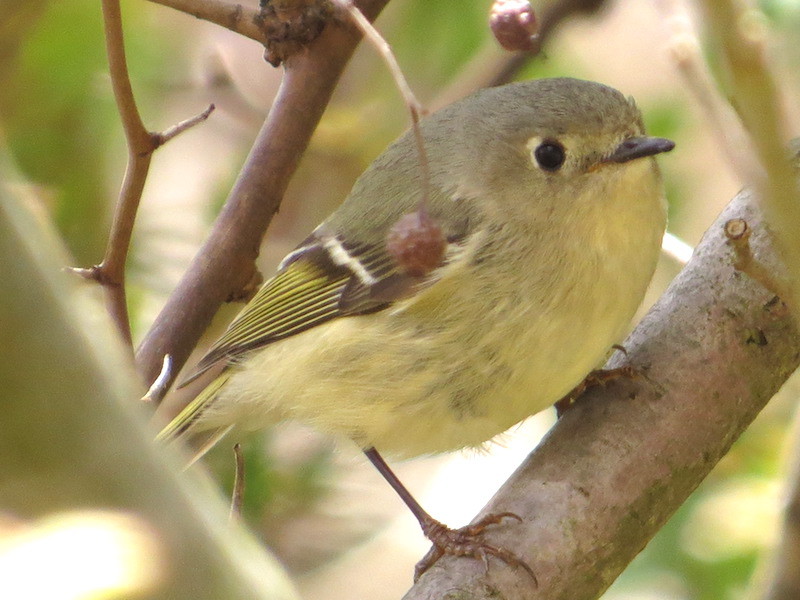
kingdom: Animalia
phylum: Chordata
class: Aves
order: Passeriformes
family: Regulidae
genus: Regulus
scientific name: Regulus calendula
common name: Ruby-crowned kinglet
